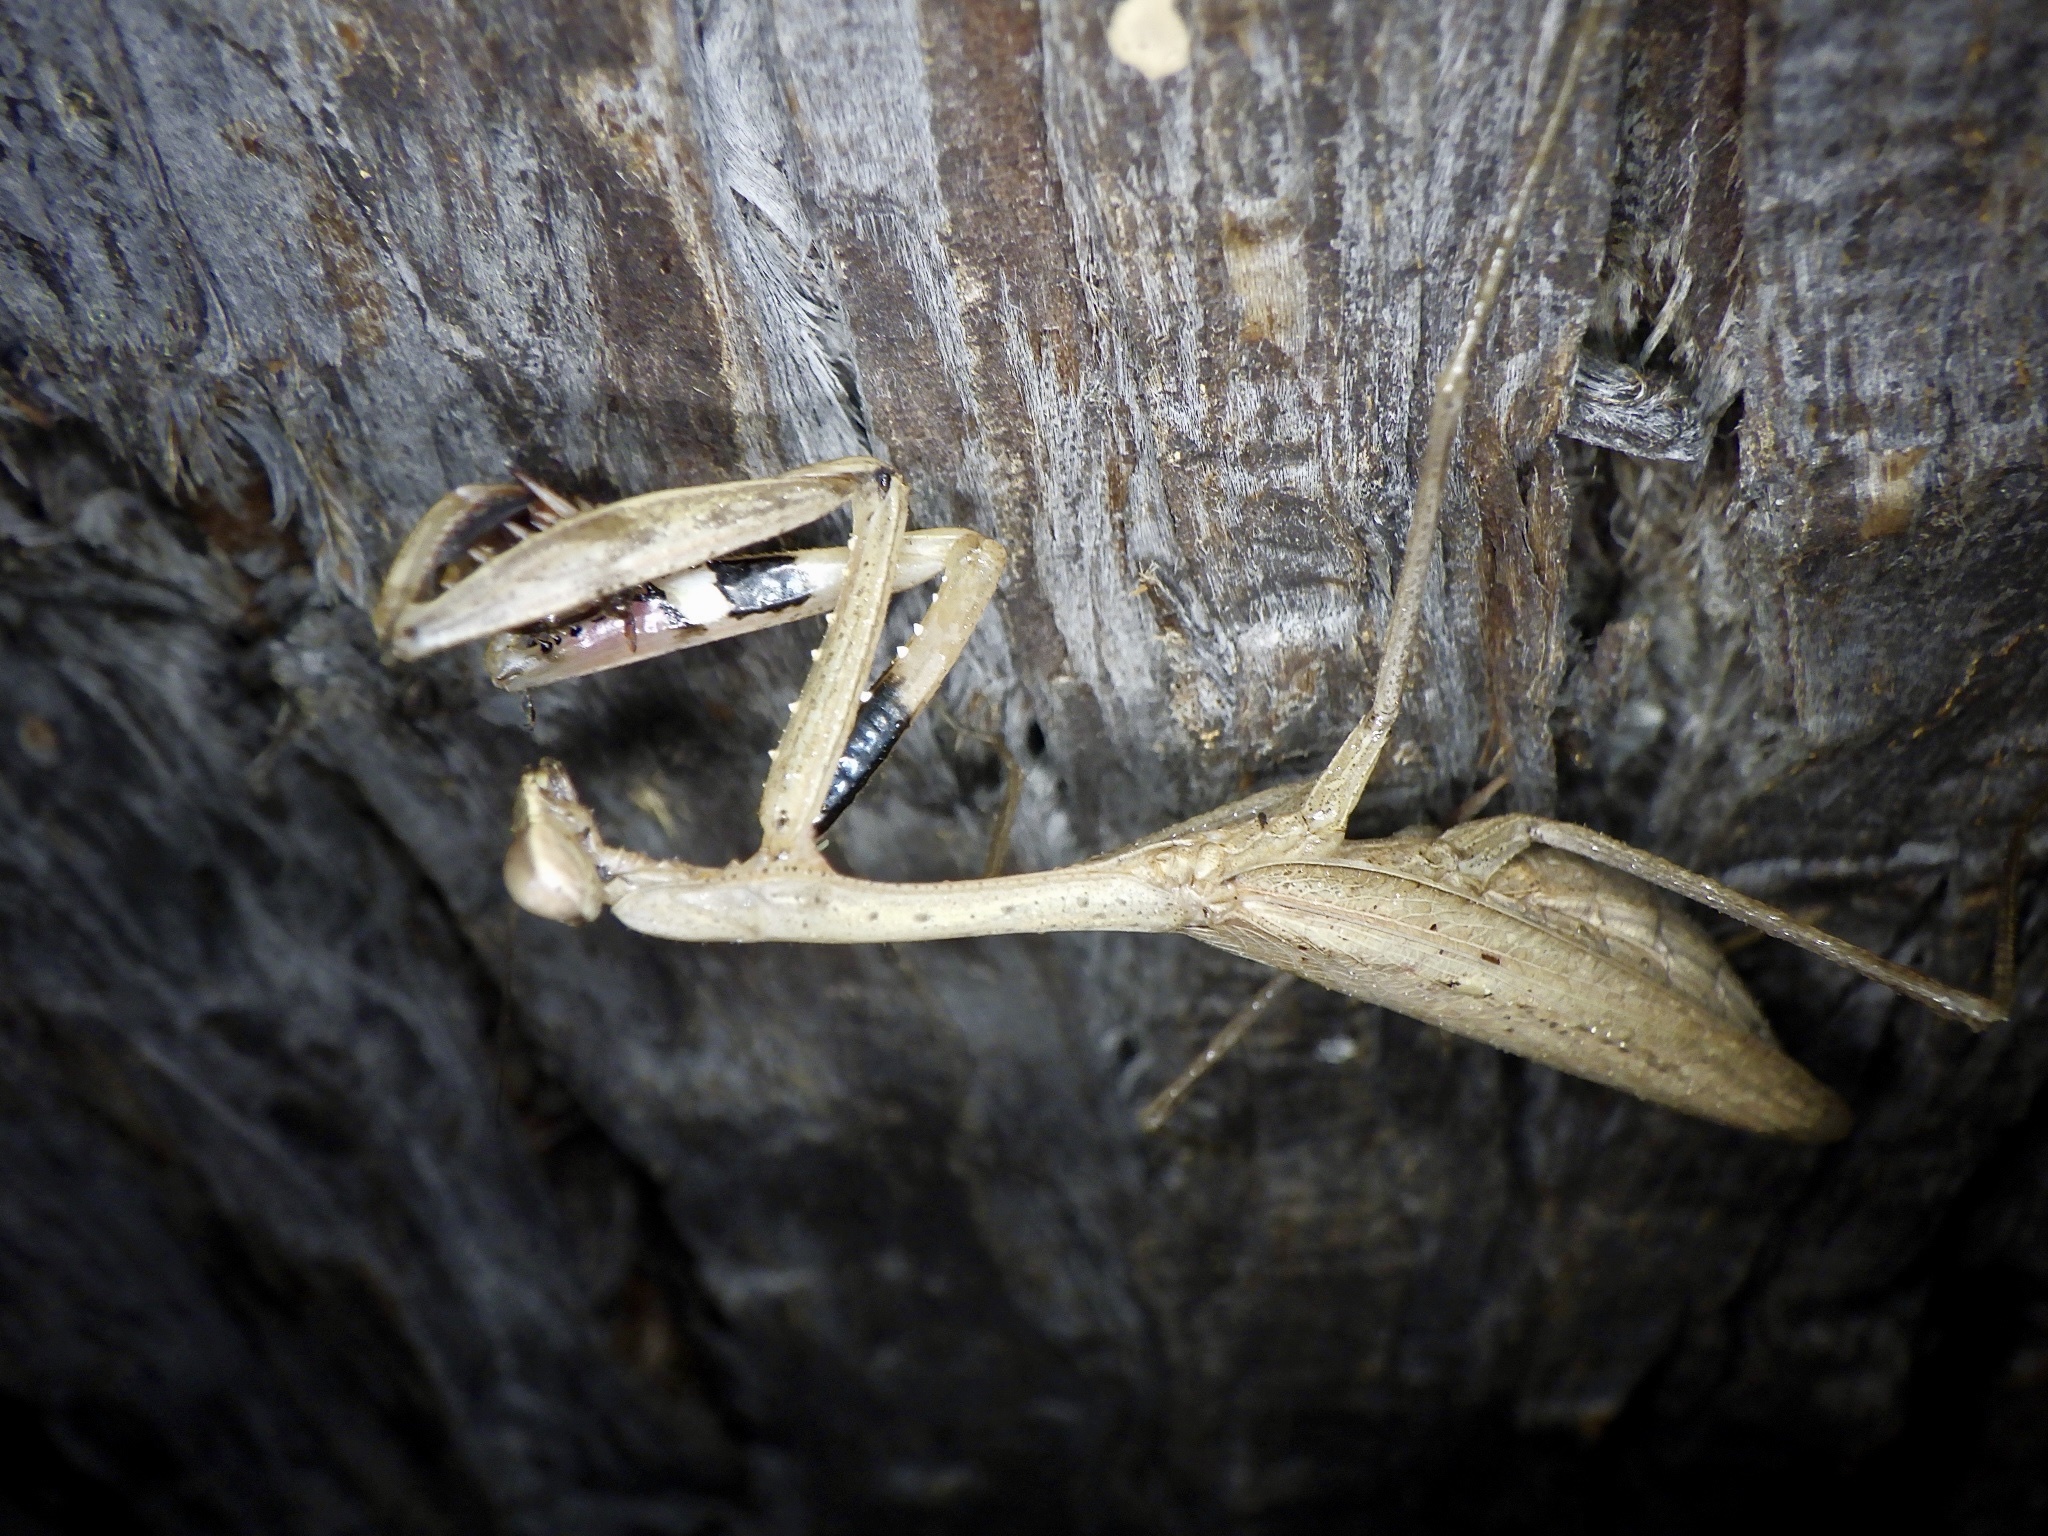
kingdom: Animalia
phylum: Arthropoda
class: Insecta
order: Mantodea
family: Mantidae
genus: Statilia
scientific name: Statilia maculata
